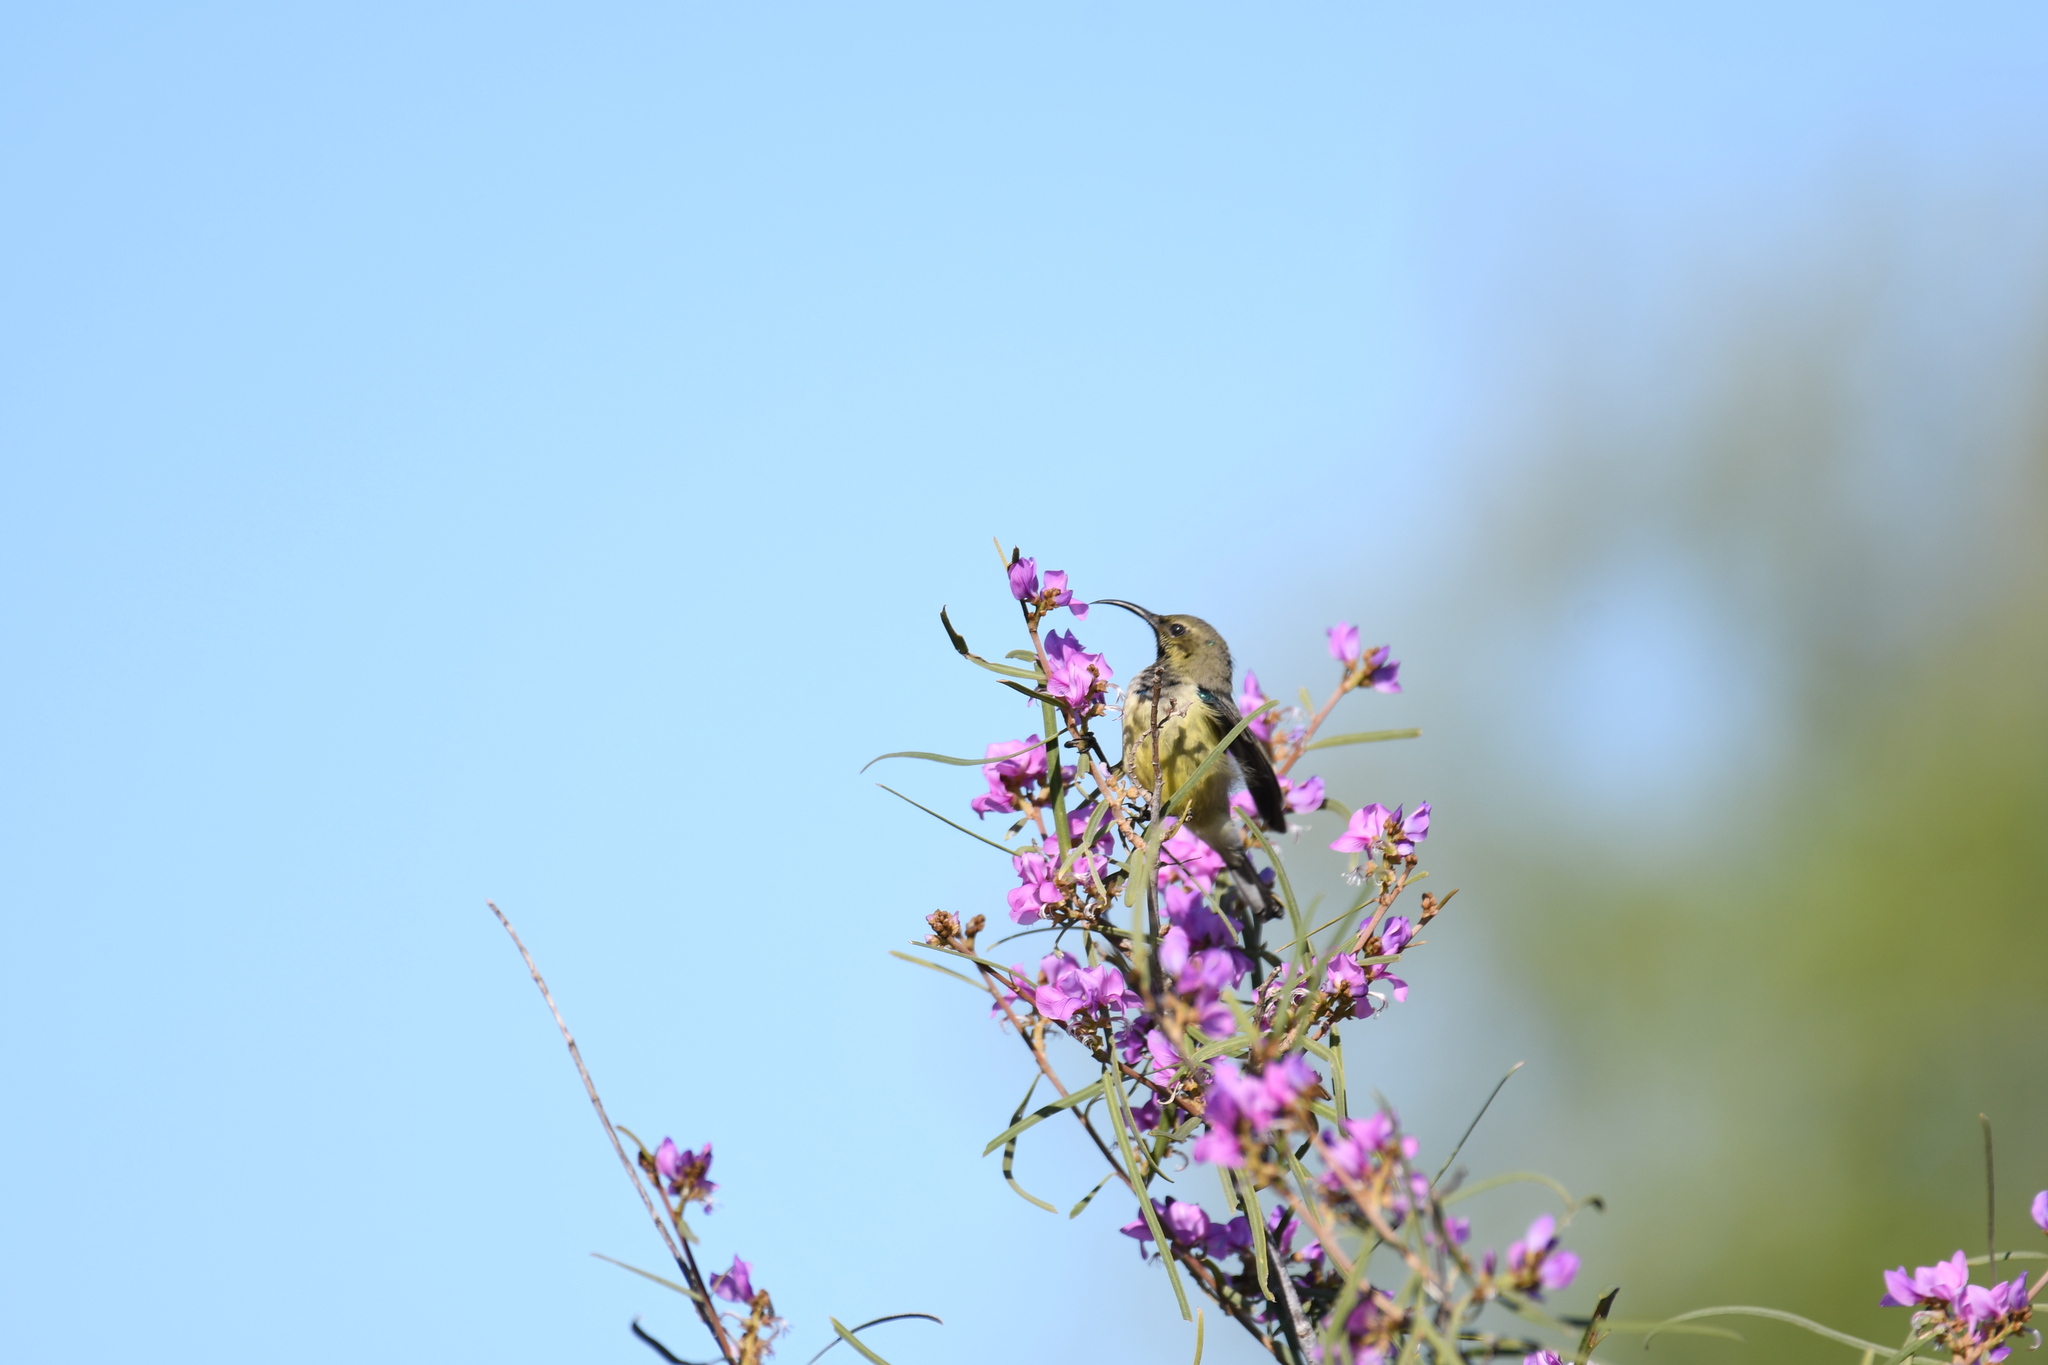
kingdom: Animalia
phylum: Chordata
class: Aves
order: Passeriformes
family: Nectariniidae
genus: Cinnyris
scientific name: Cinnyris sovimanga
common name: Souimanga sunbird
